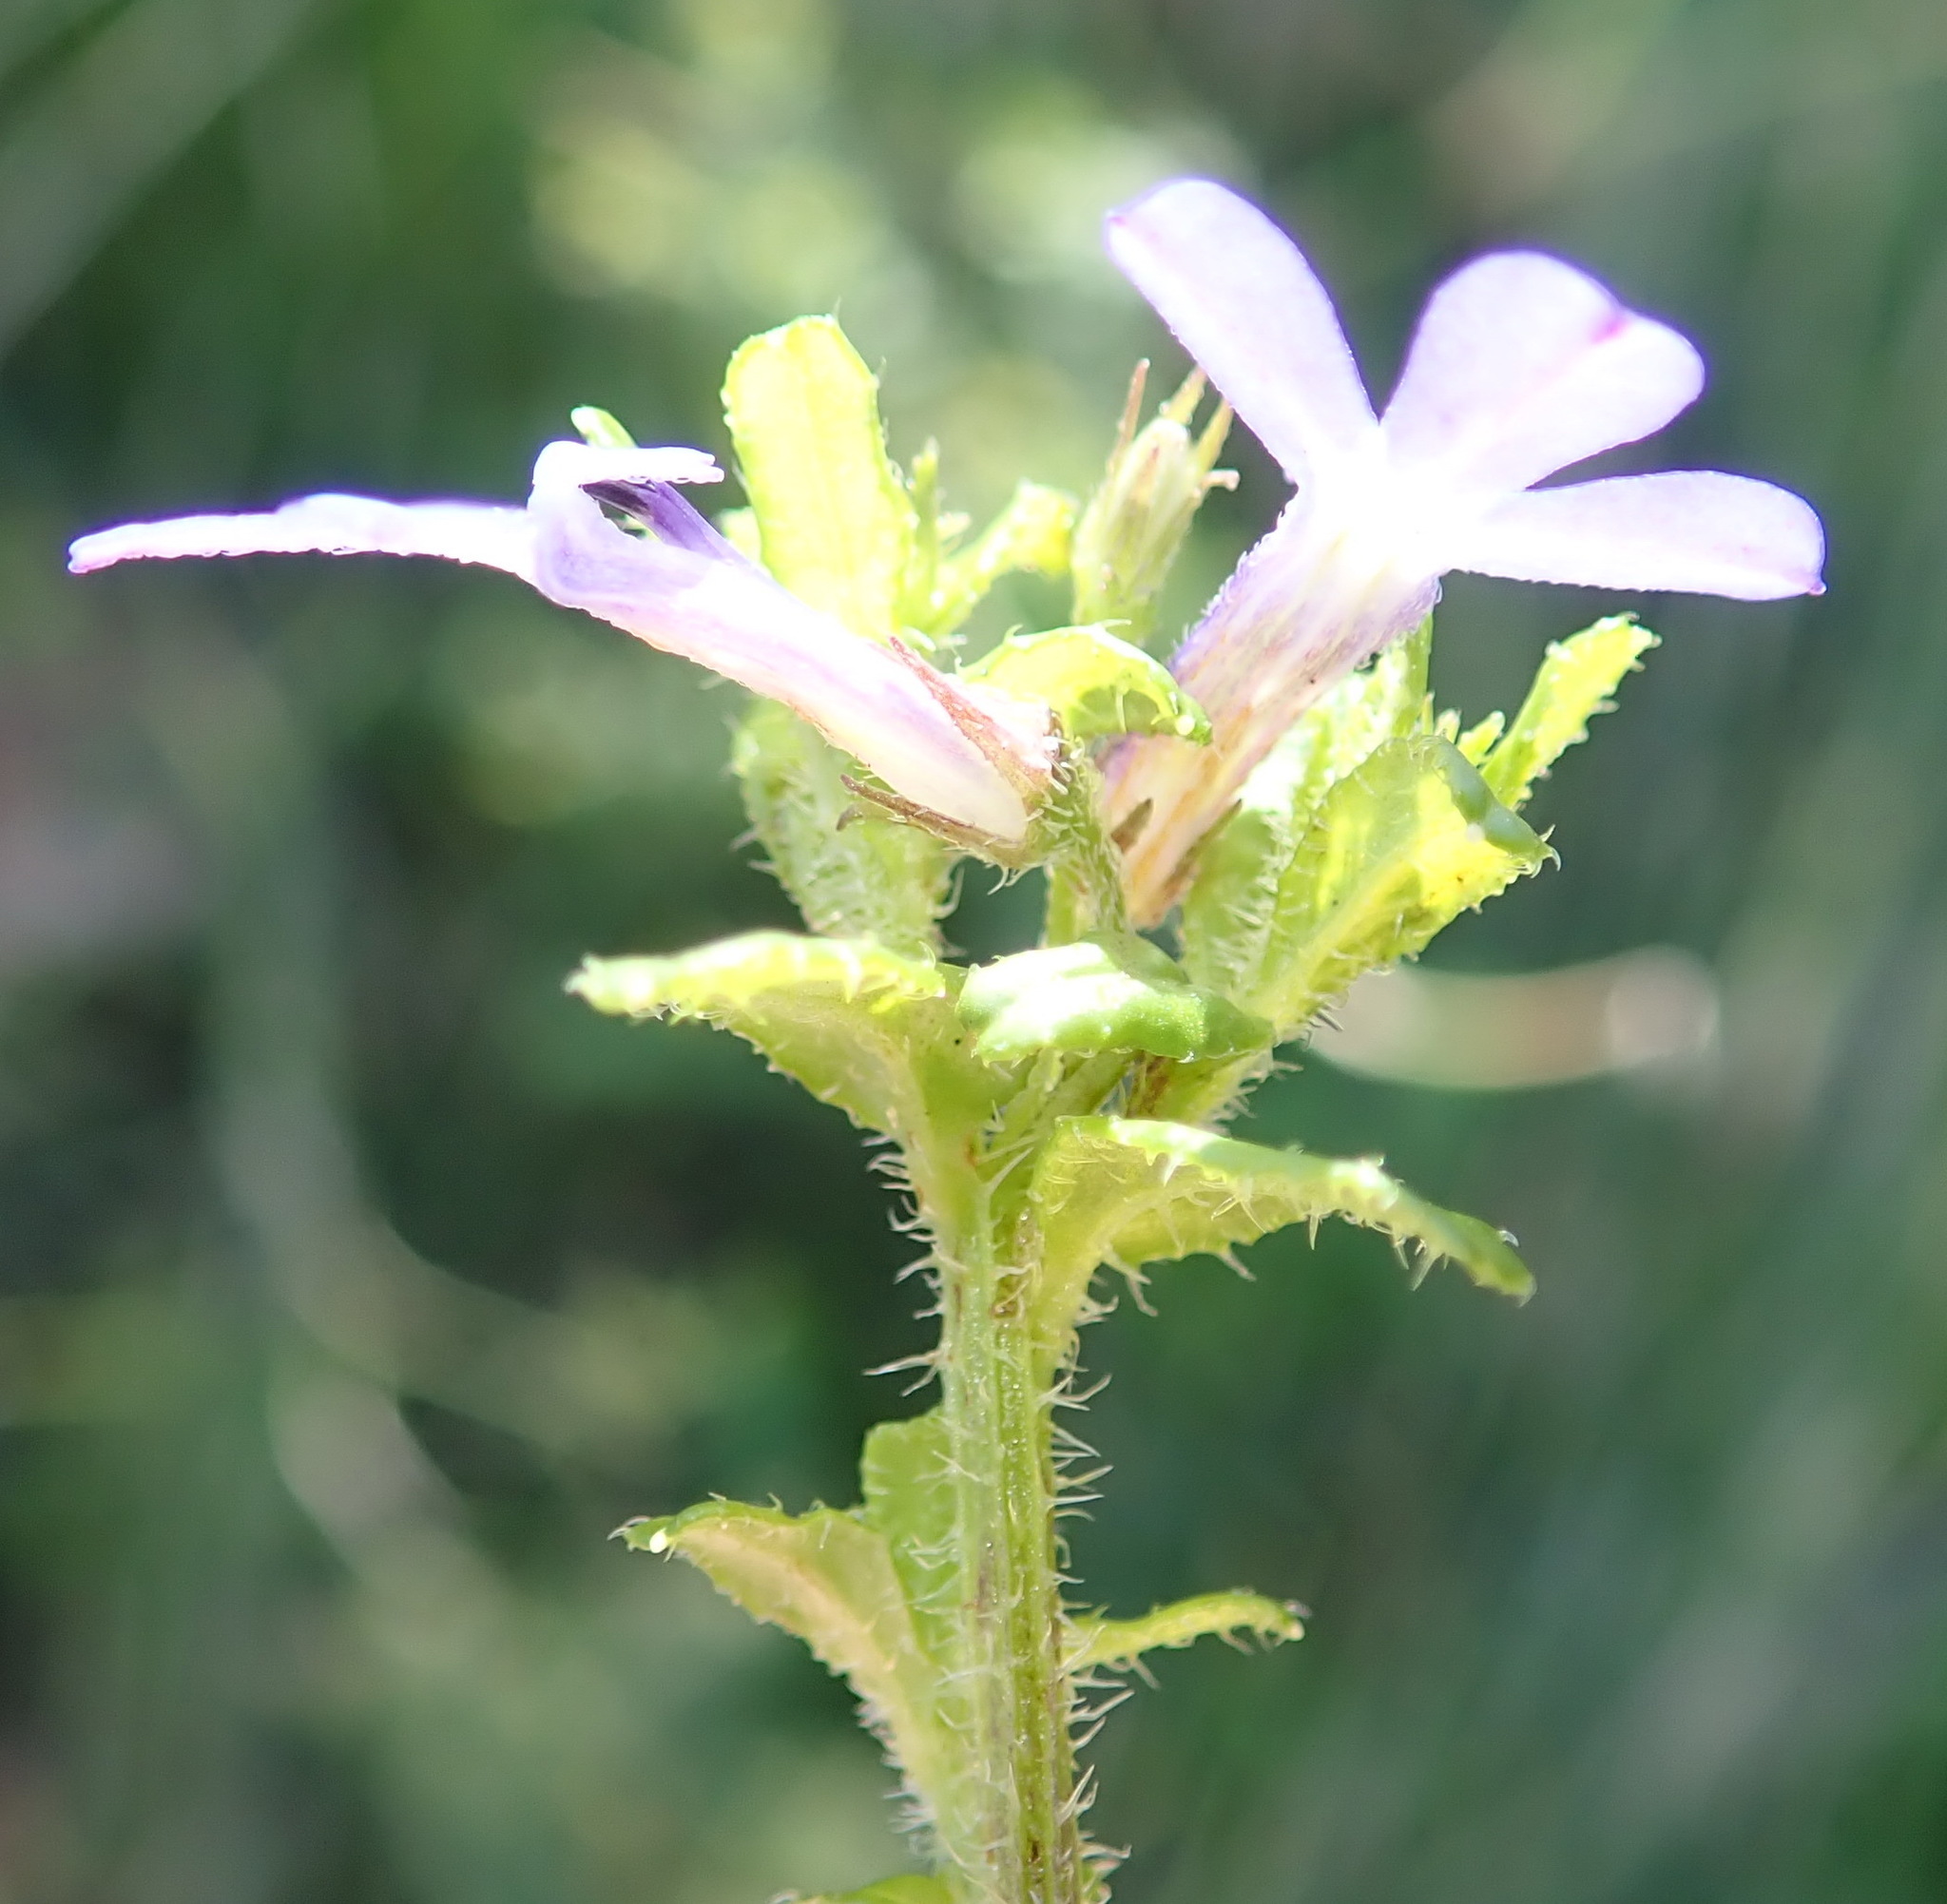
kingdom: Plantae
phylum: Tracheophyta
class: Magnoliopsida
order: Asterales
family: Campanulaceae
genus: Lobelia
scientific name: Lobelia neglecta
